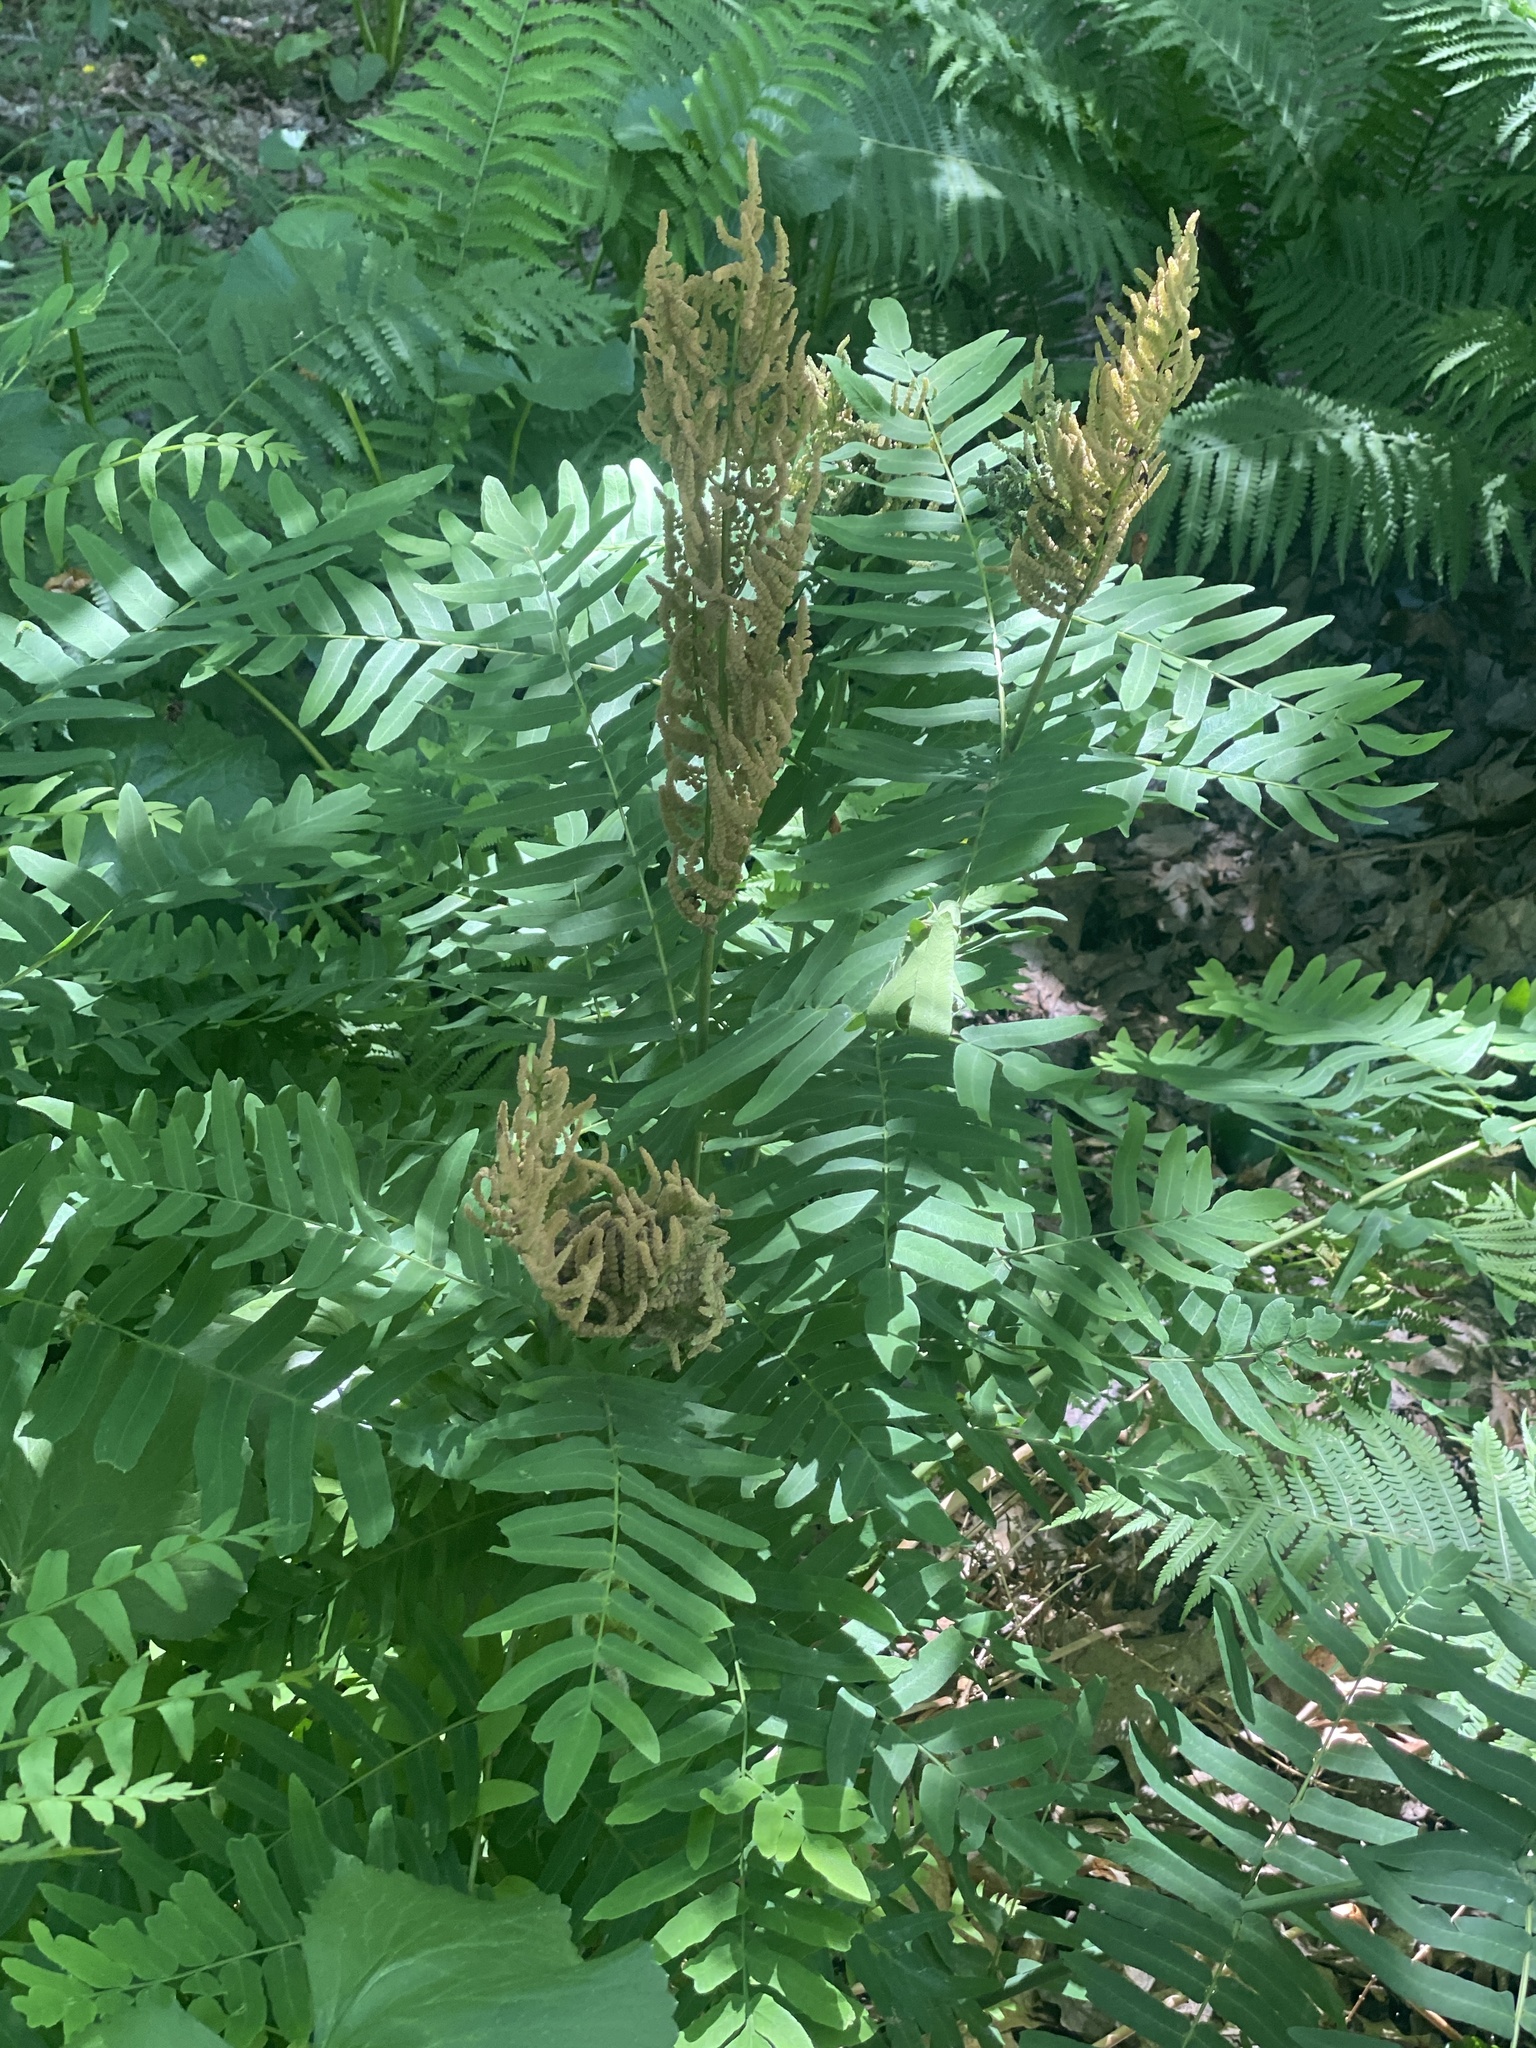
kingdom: Plantae
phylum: Tracheophyta
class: Polypodiopsida
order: Osmundales
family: Osmundaceae
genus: Osmunda
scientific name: Osmunda spectabilis
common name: American royal fern
